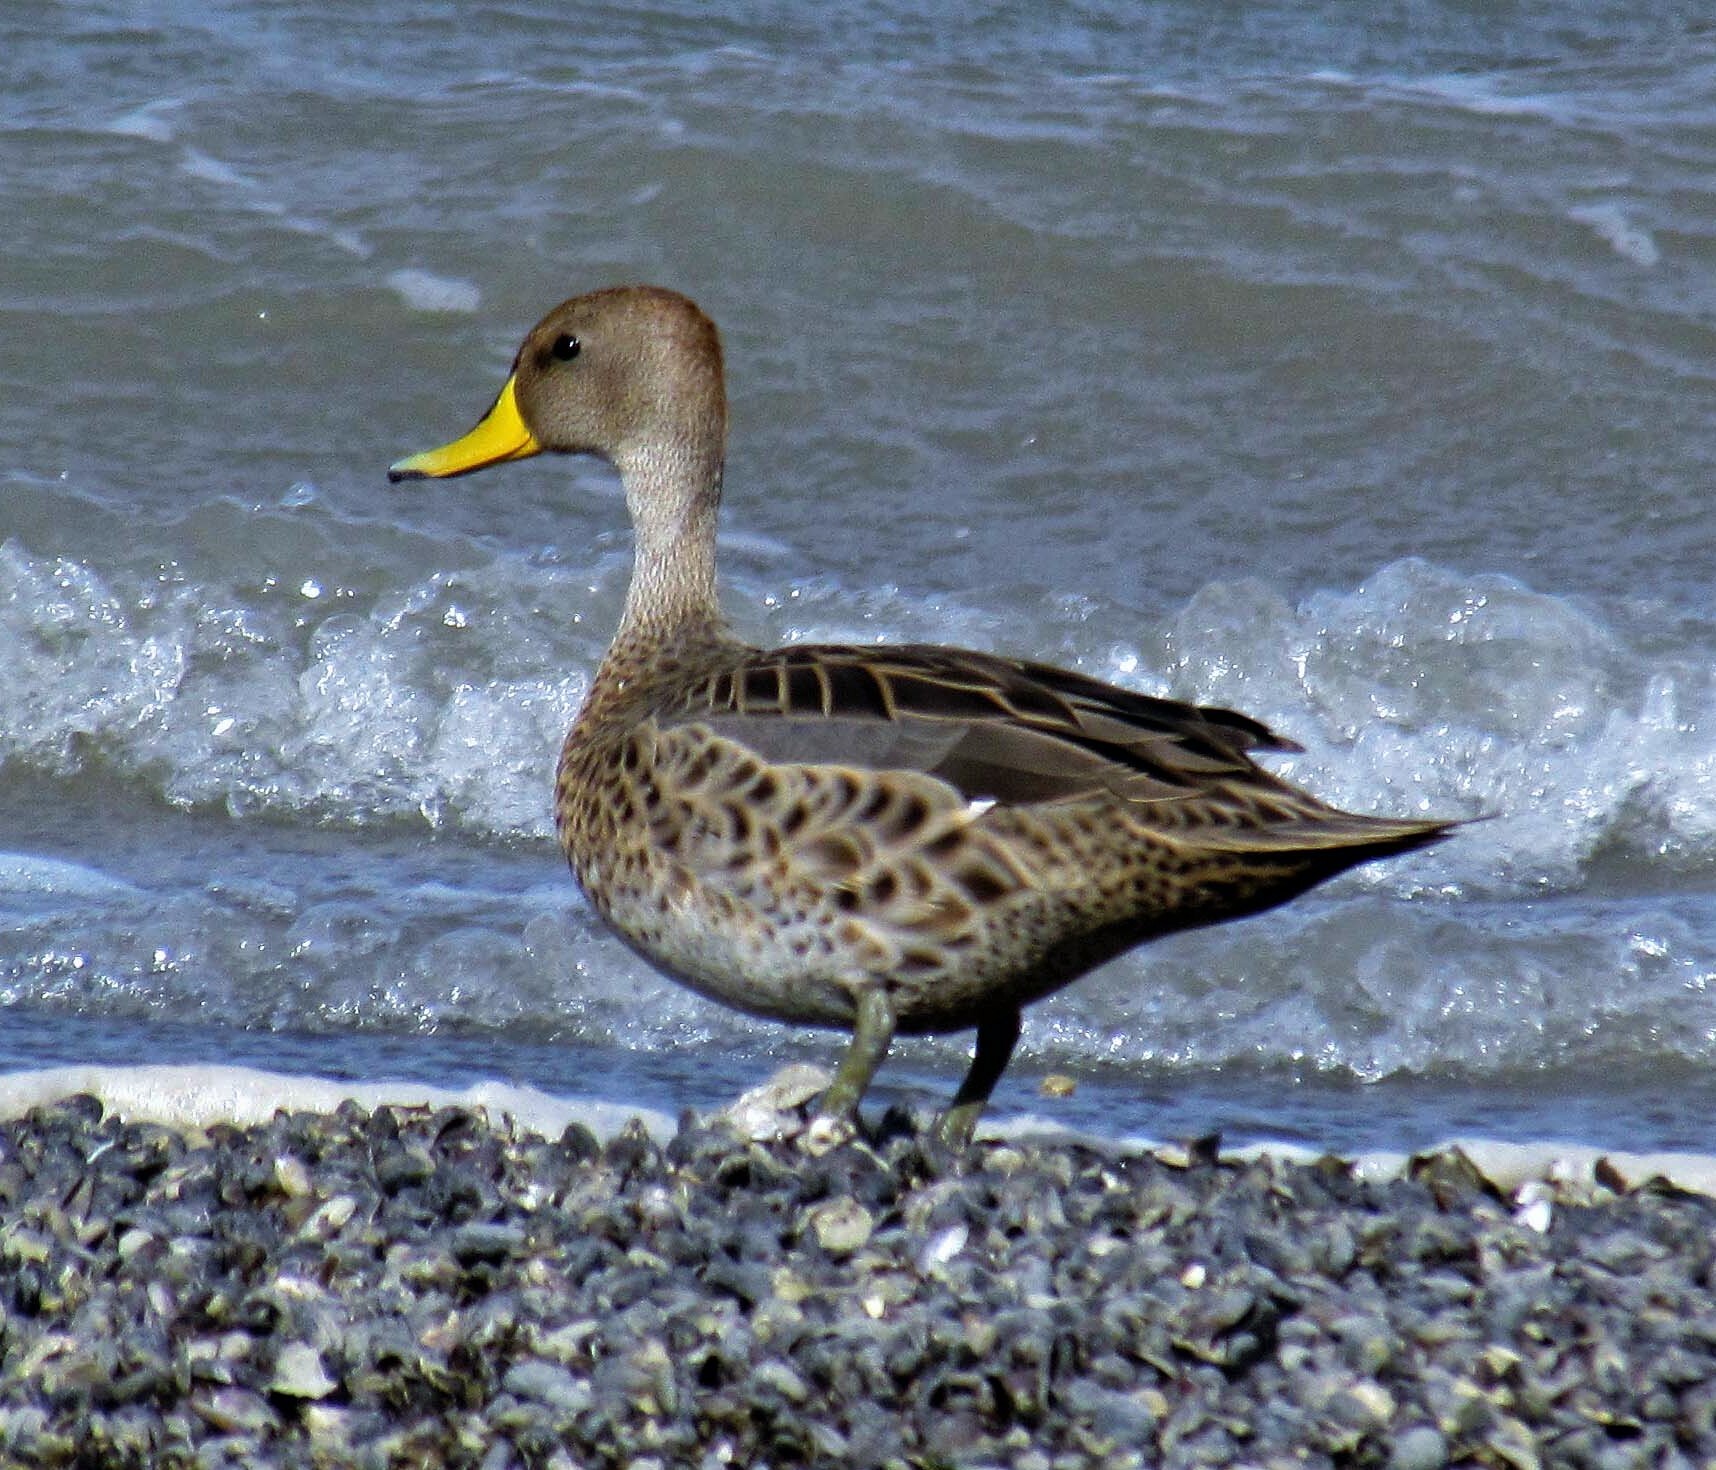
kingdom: Animalia
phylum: Chordata
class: Aves
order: Anseriformes
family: Anatidae
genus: Anas
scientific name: Anas georgica
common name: Yellow-billed pintail
